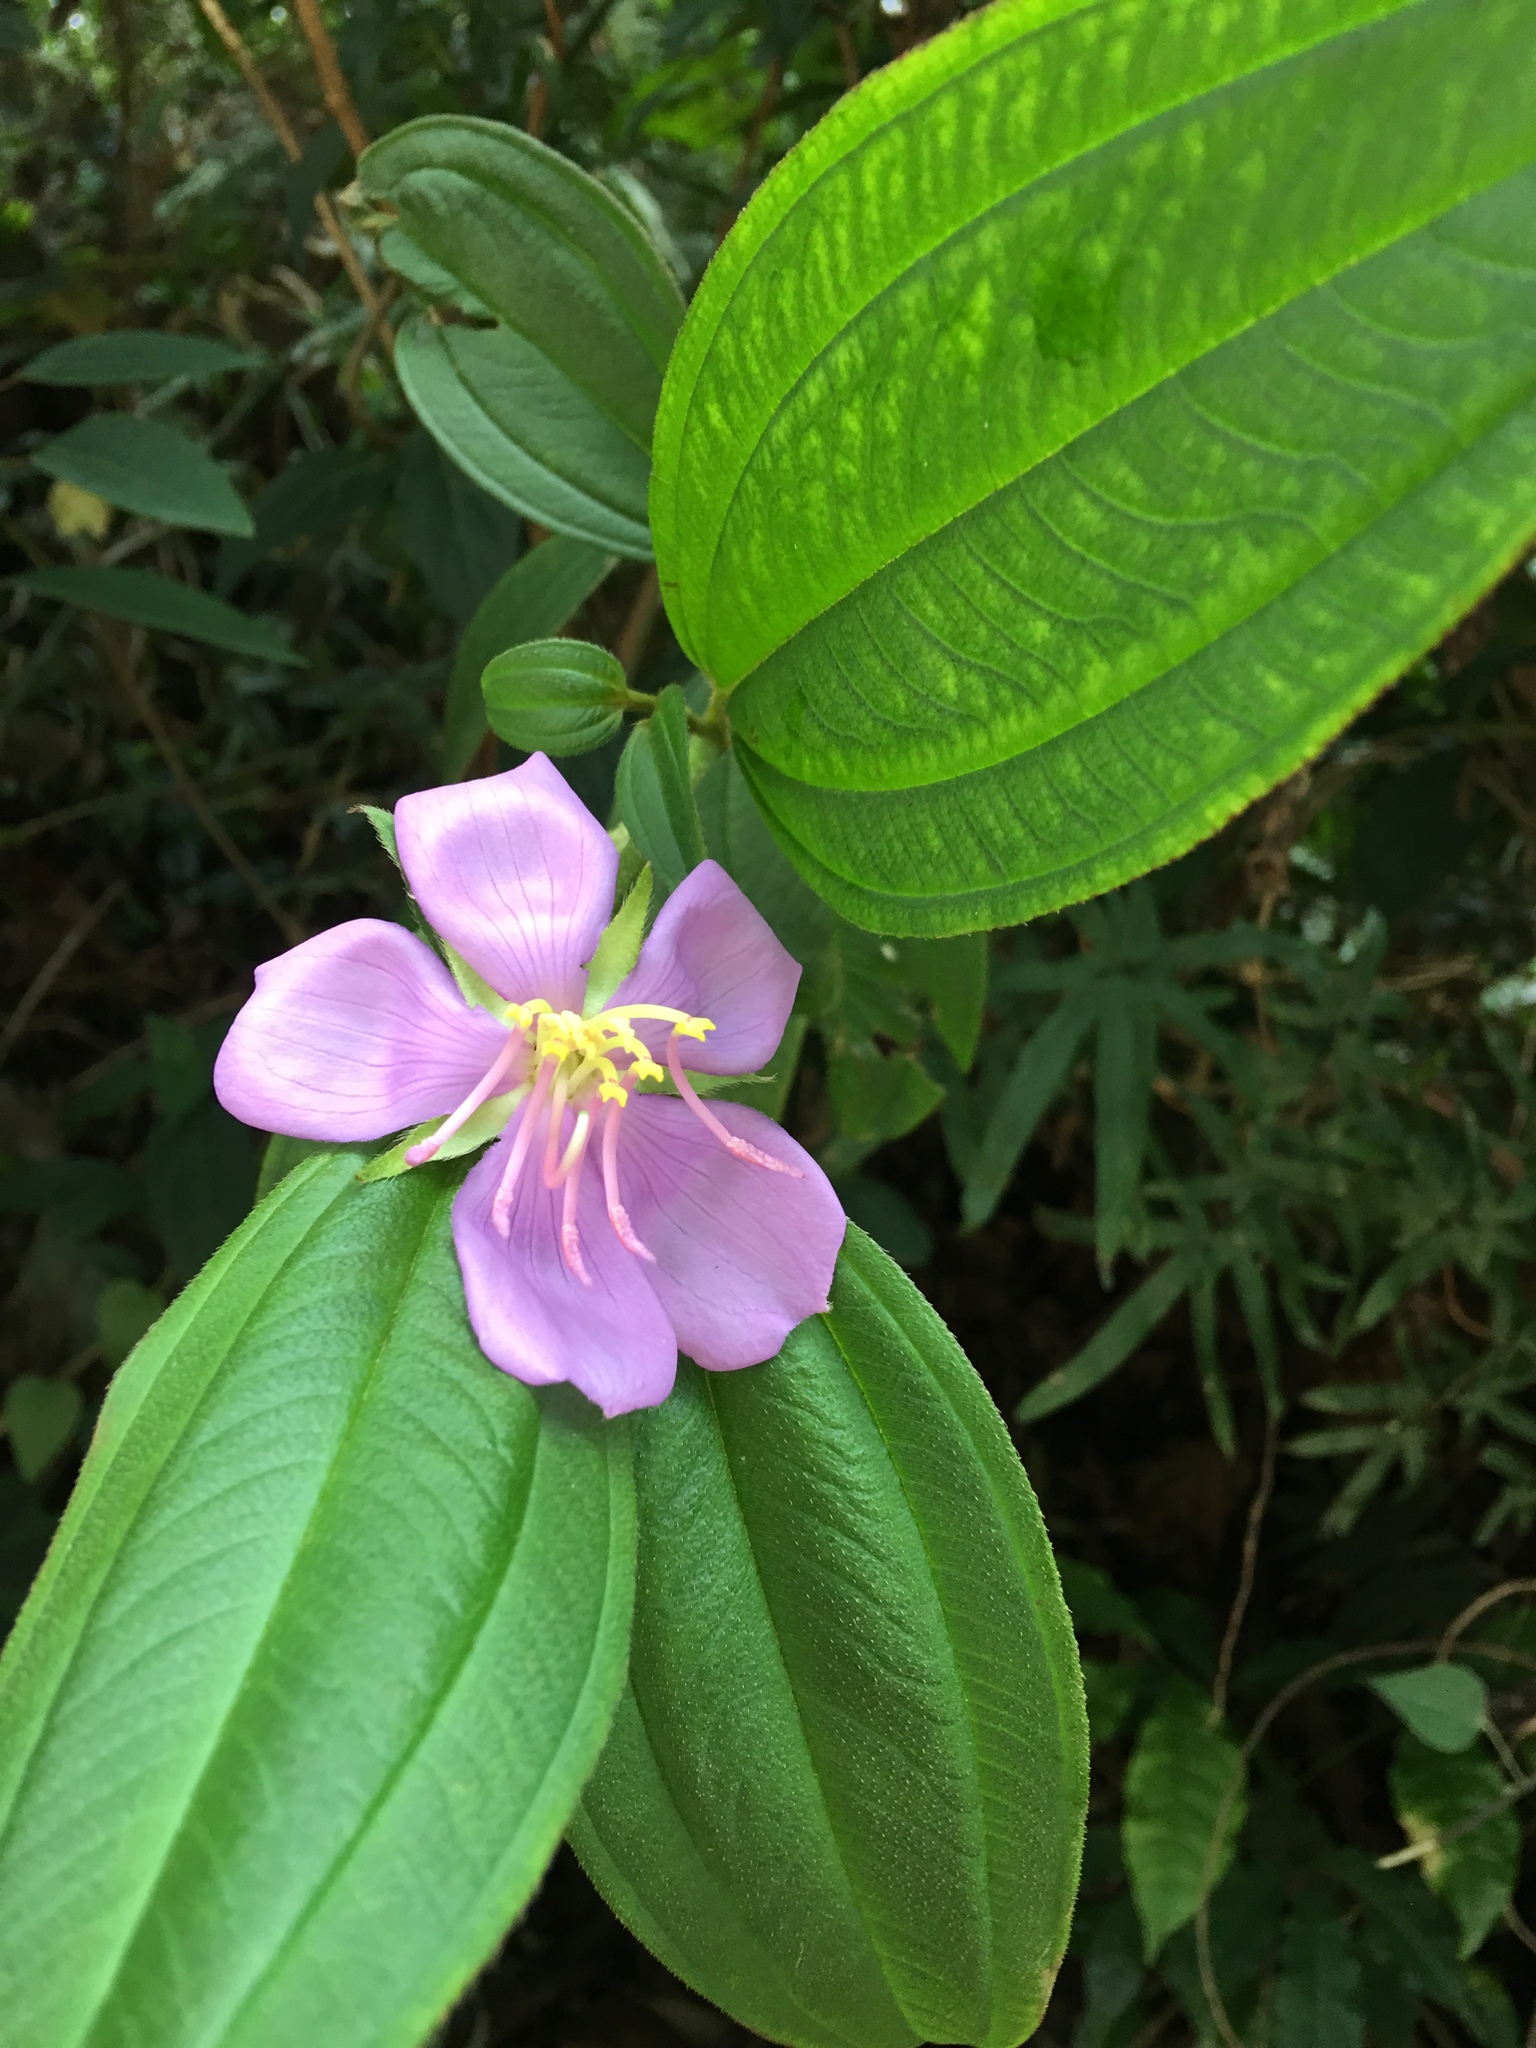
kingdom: Plantae
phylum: Tracheophyta
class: Magnoliopsida
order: Myrtales
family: Melastomataceae
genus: Melastoma
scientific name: Melastoma malabathricum
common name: Indian-rhododendron
